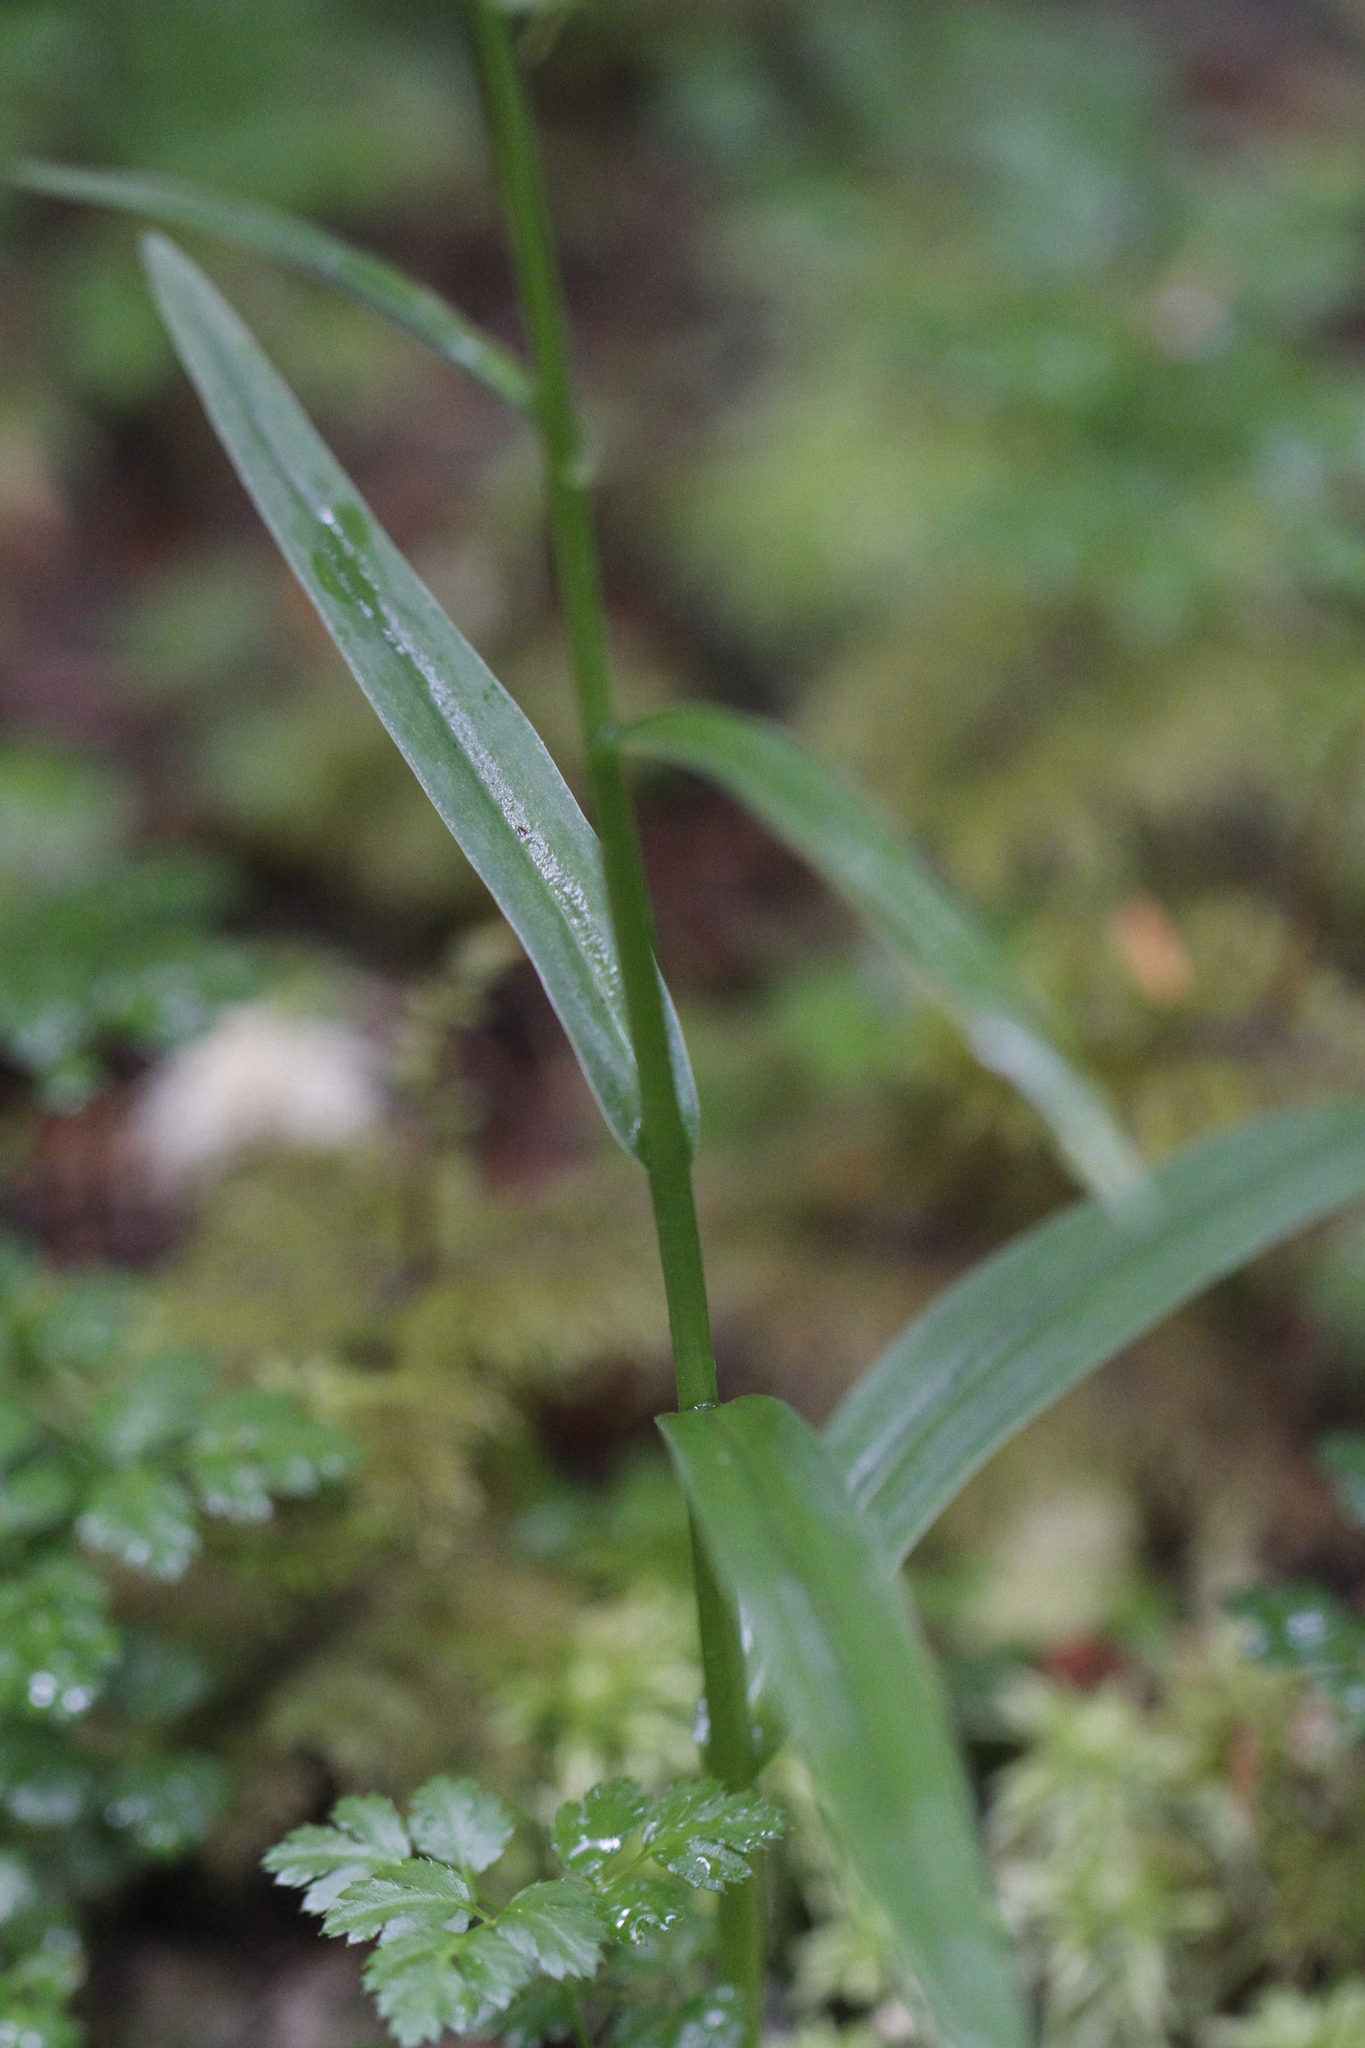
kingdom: Plantae
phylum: Tracheophyta
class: Liliopsida
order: Asparagales
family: Orchidaceae
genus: Platanthera
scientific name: Platanthera stricta
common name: Slender bog orchid
